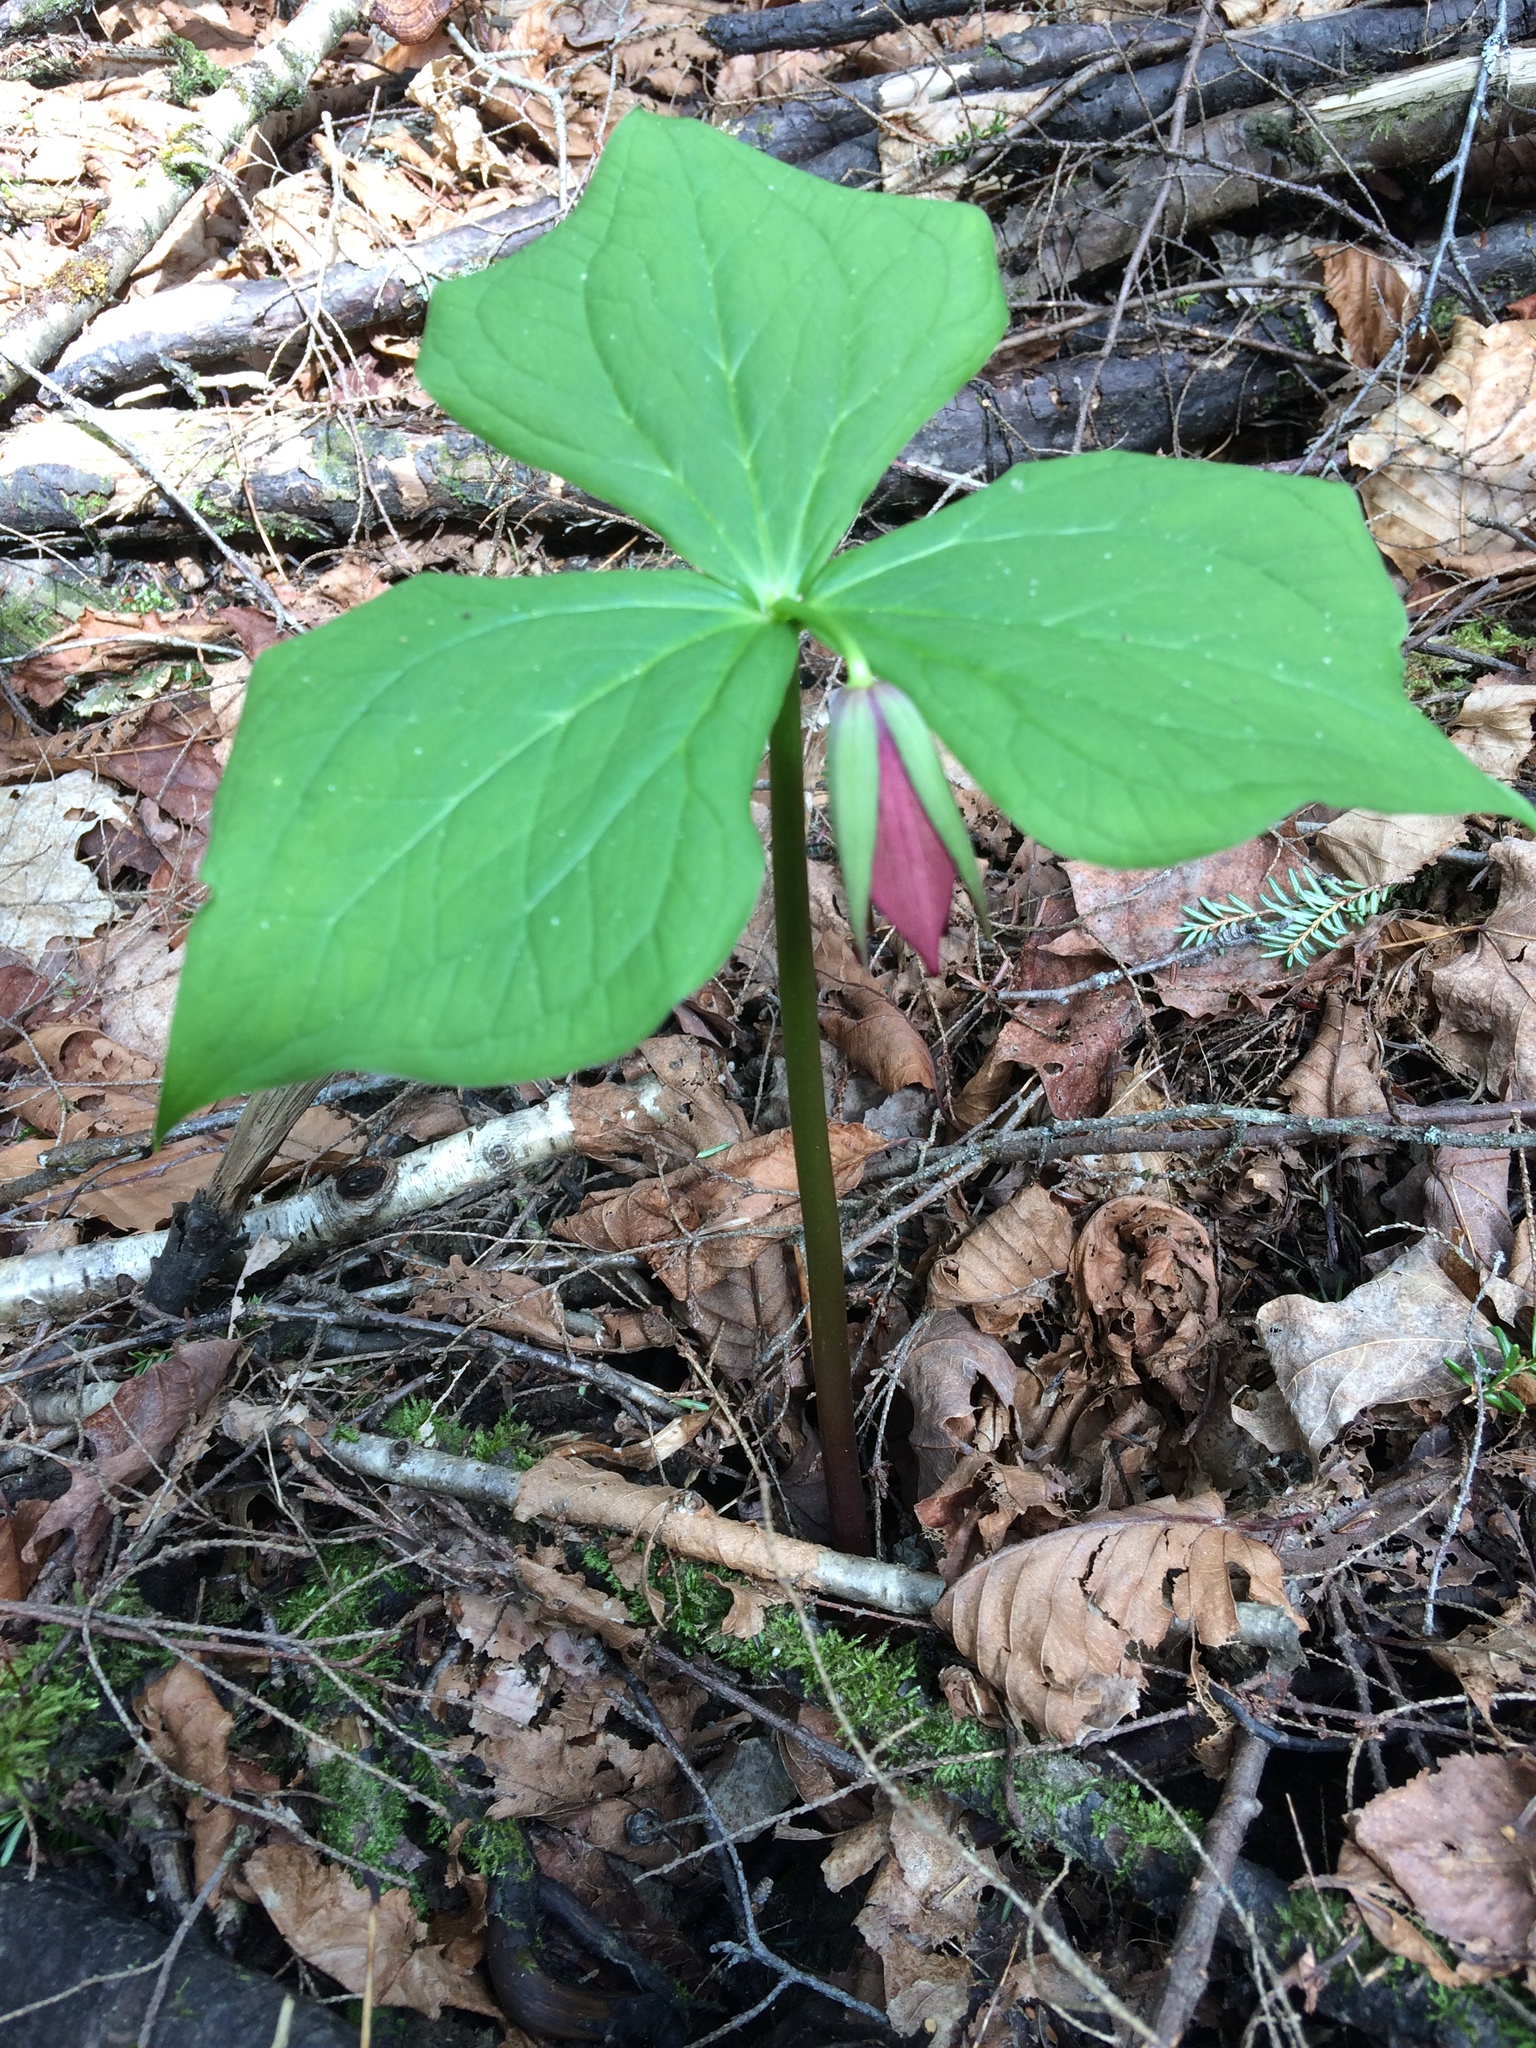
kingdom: Plantae
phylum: Tracheophyta
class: Liliopsida
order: Liliales
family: Melanthiaceae
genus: Trillium
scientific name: Trillium erectum
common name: Purple trillium
